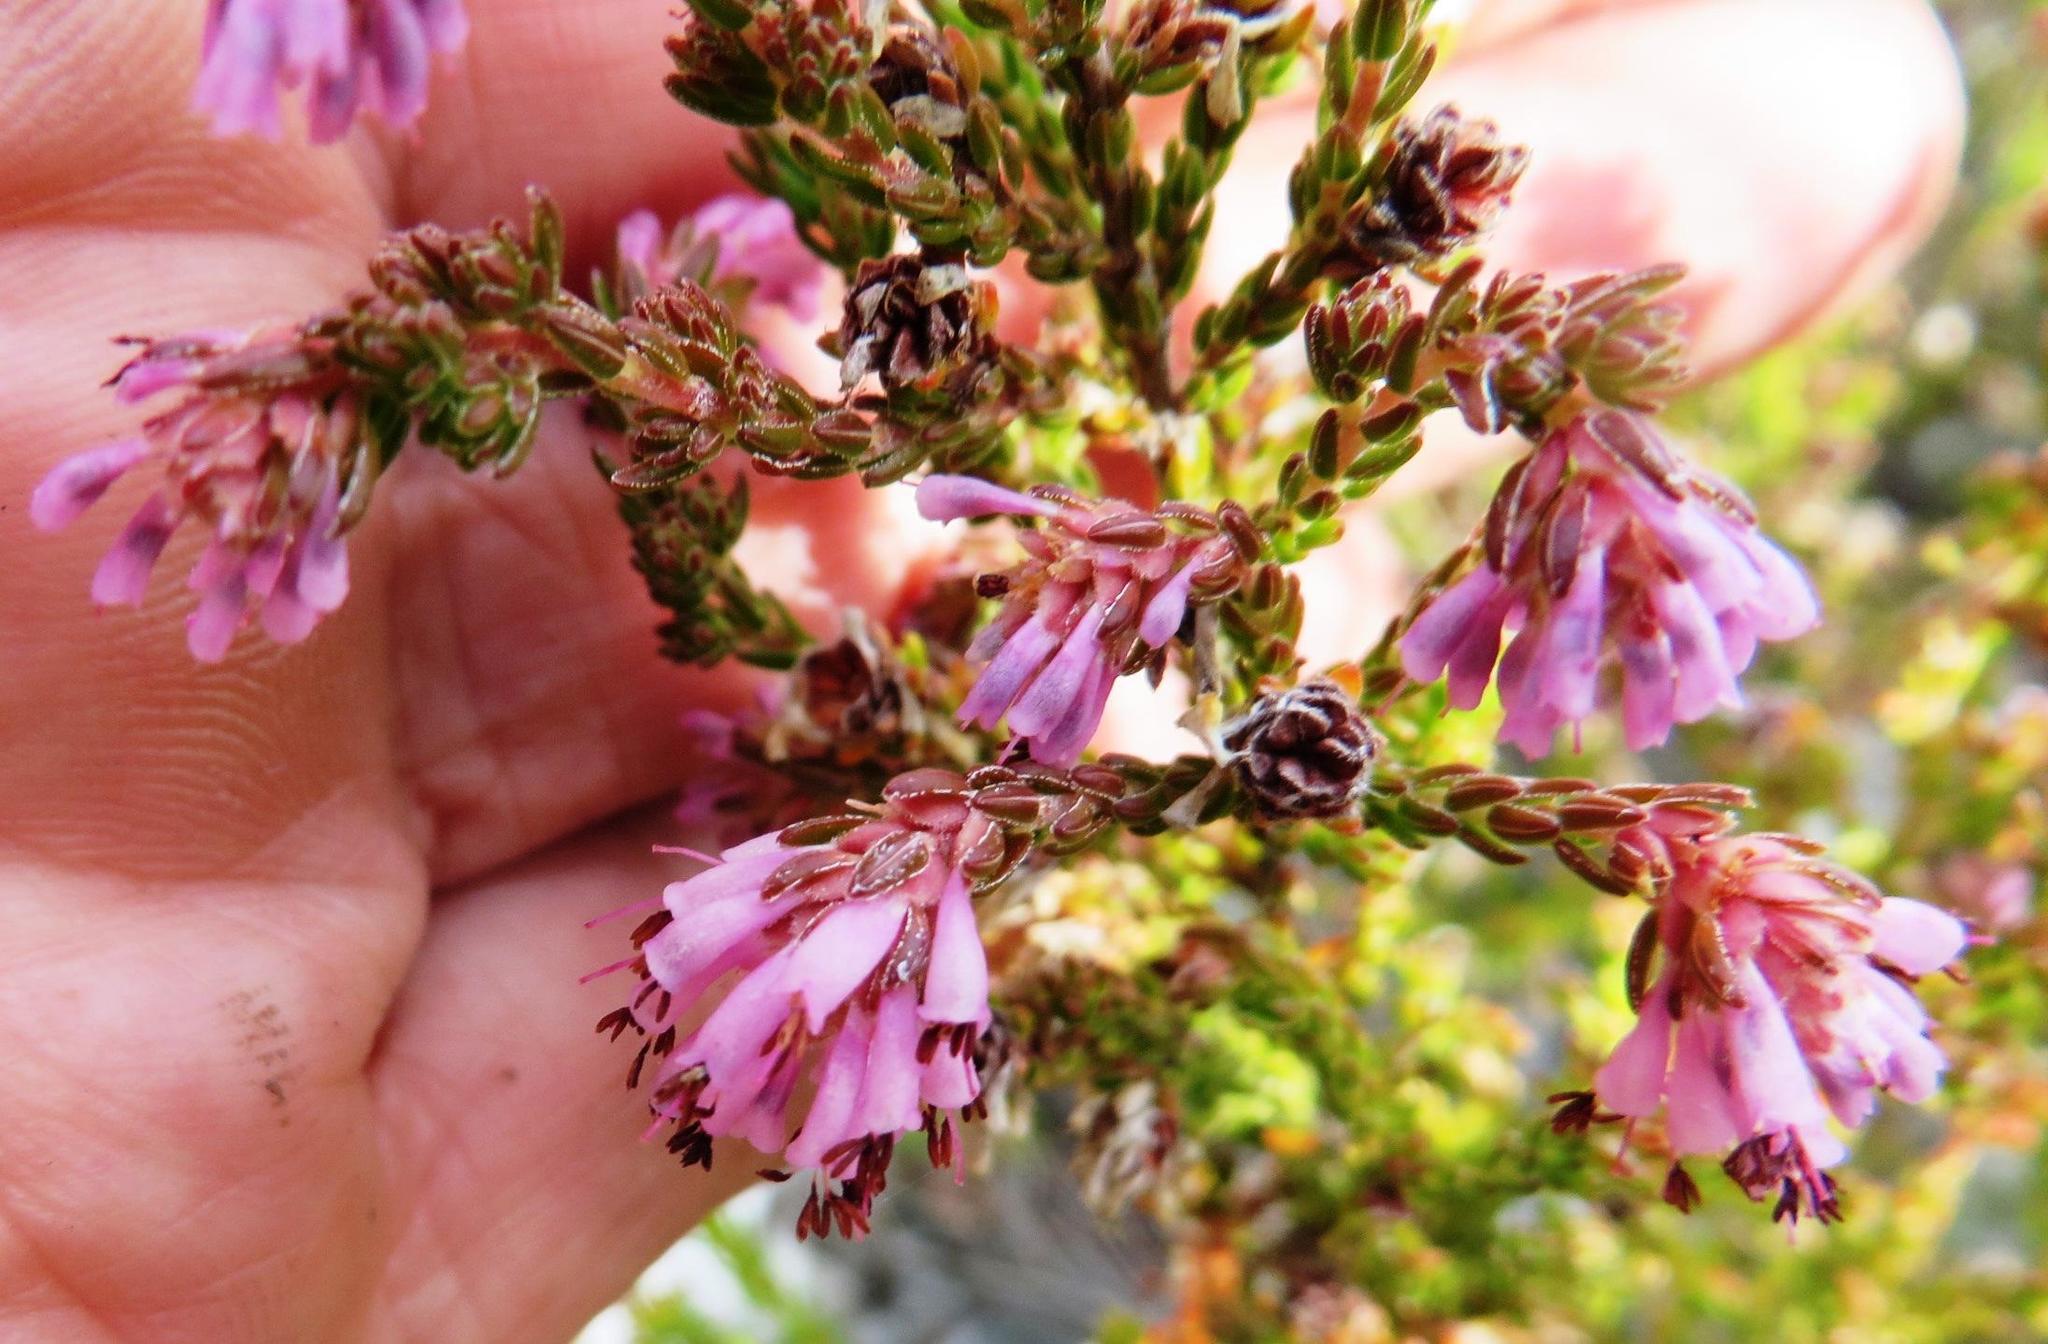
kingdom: Plantae
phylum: Tracheophyta
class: Magnoliopsida
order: Ericales
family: Ericaceae
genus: Erica
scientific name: Erica labialis
